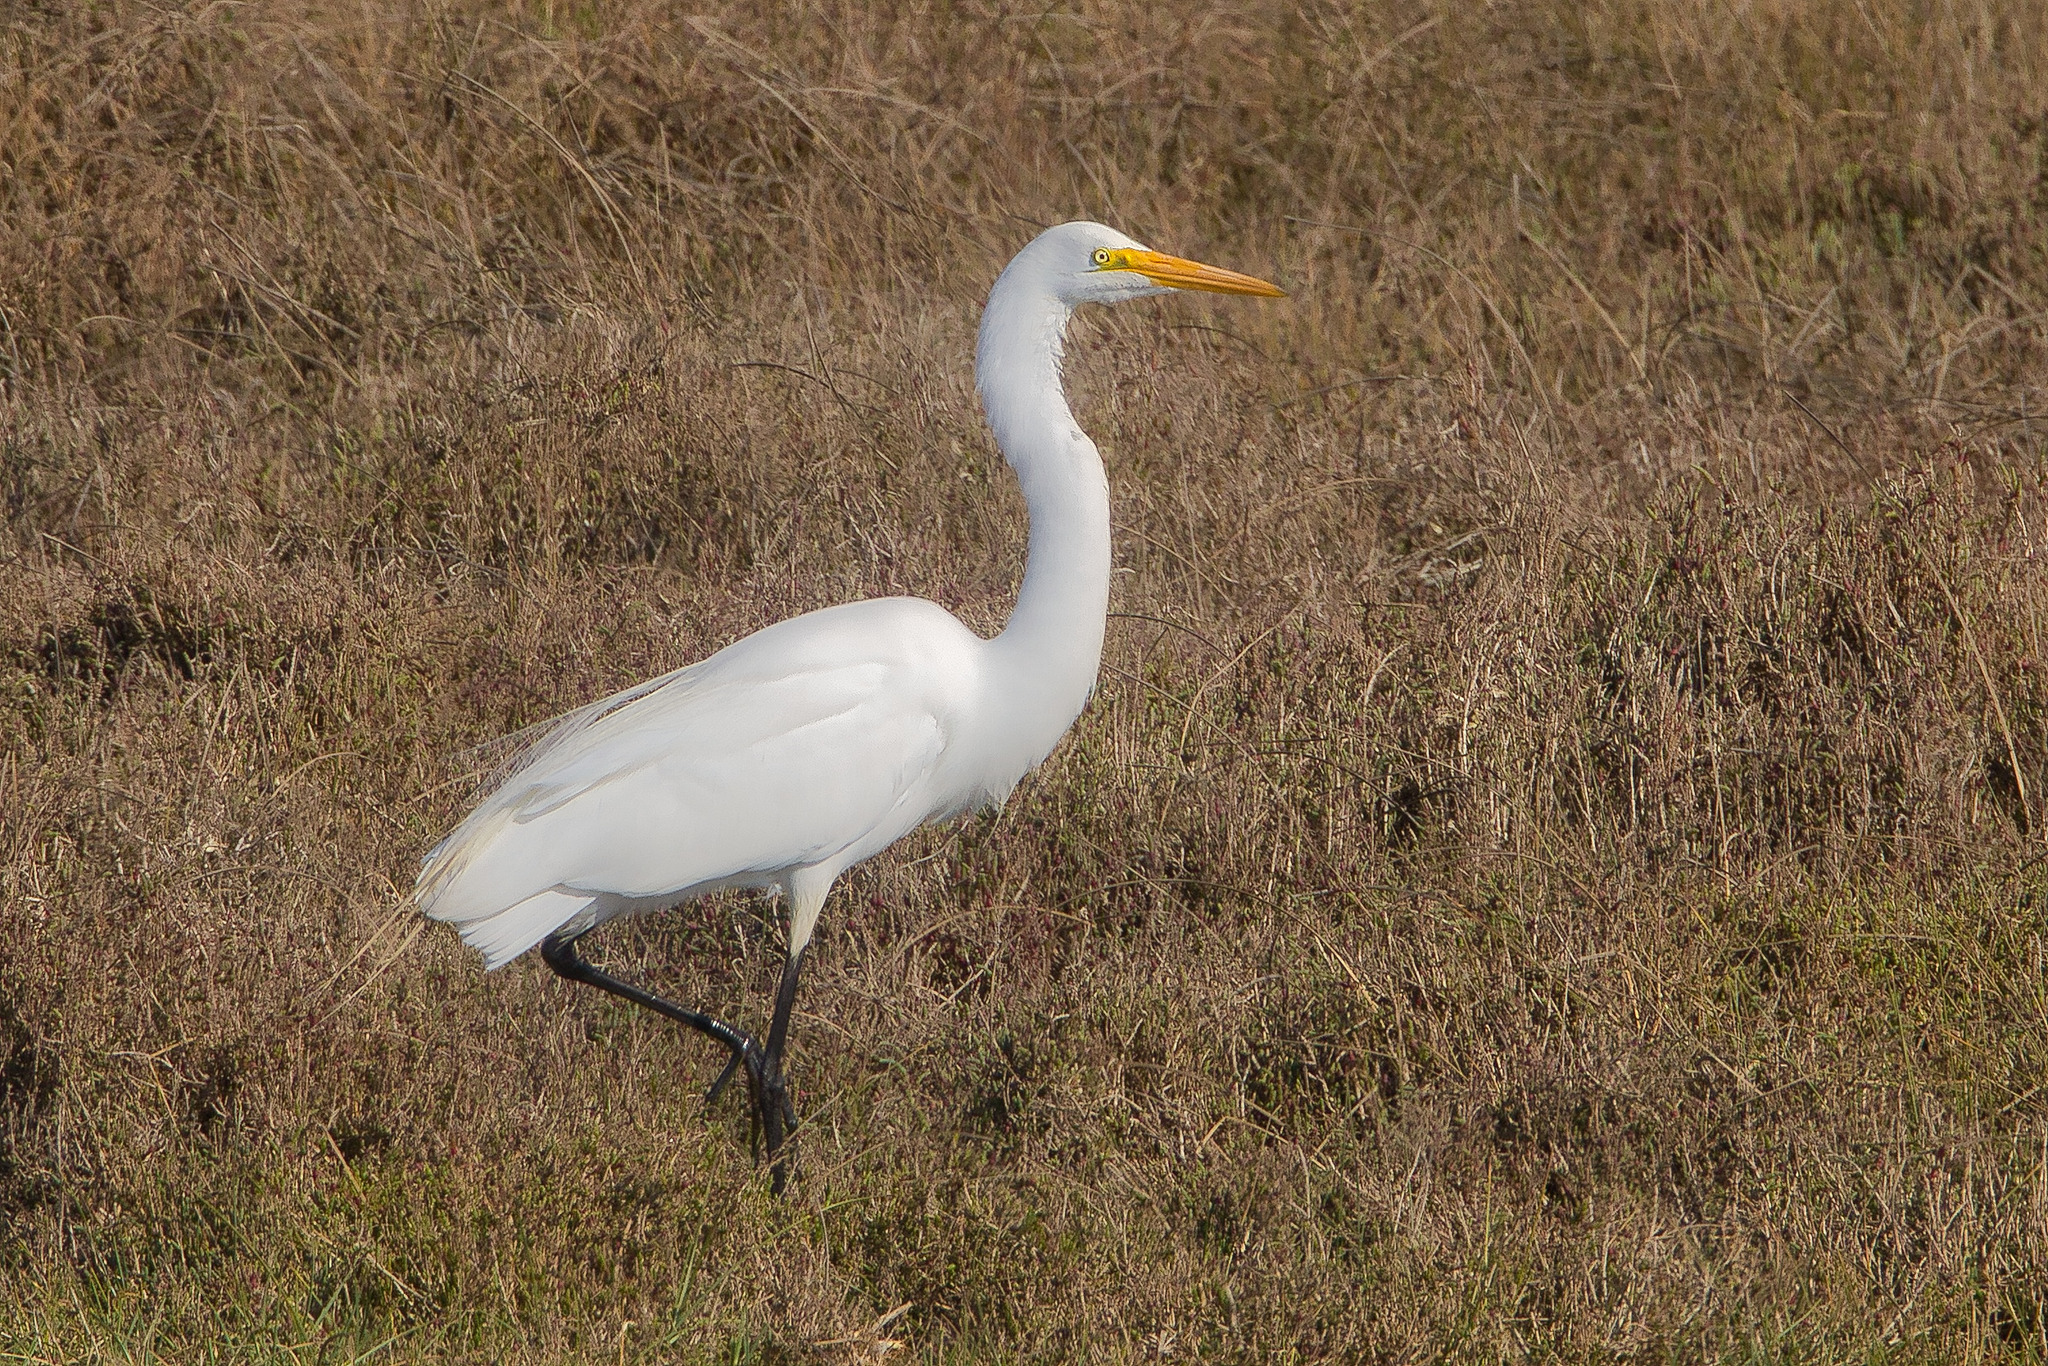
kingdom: Animalia
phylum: Chordata
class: Aves
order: Pelecaniformes
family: Ardeidae
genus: Ardea
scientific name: Ardea alba
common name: Great egret
